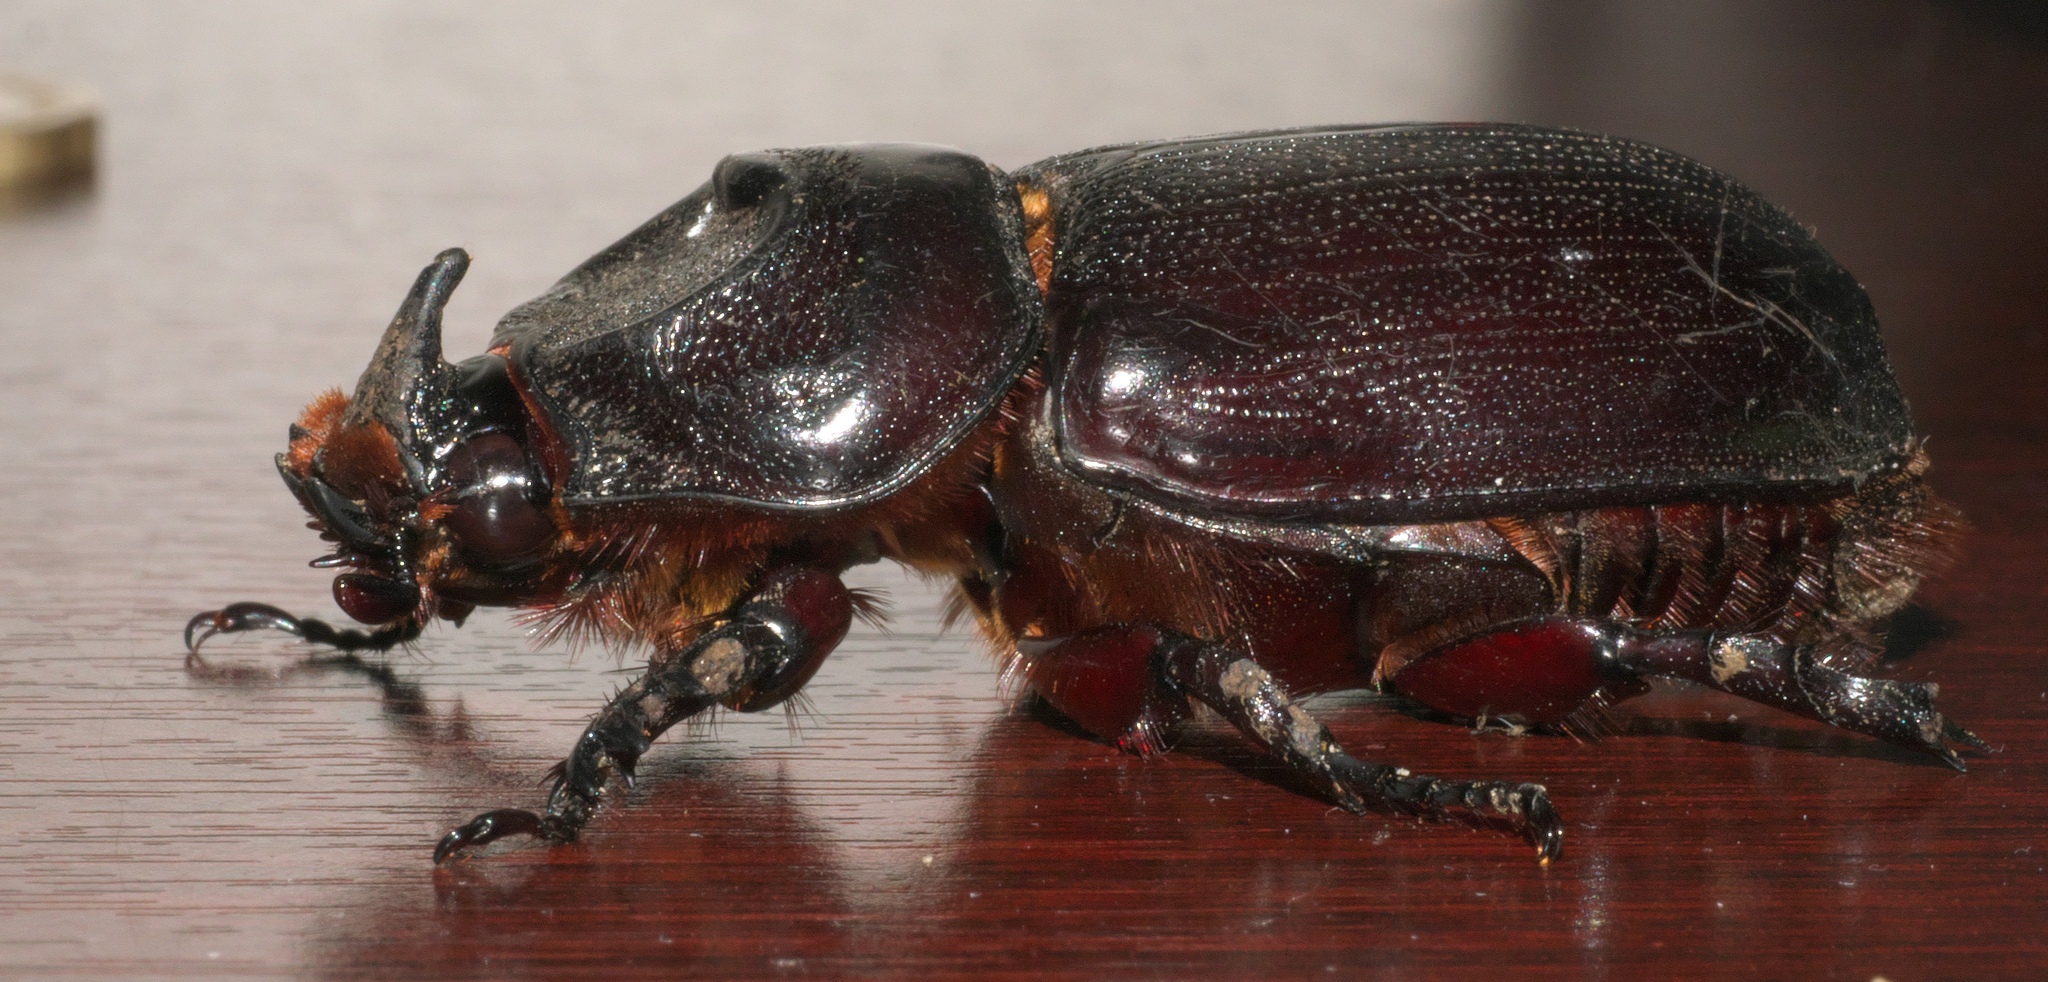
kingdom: Animalia
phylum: Arthropoda
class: Insecta
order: Coleoptera
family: Scarabaeidae
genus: Oryctes
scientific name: Oryctes rhinoceros
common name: Coconut rhinoceros beetle
